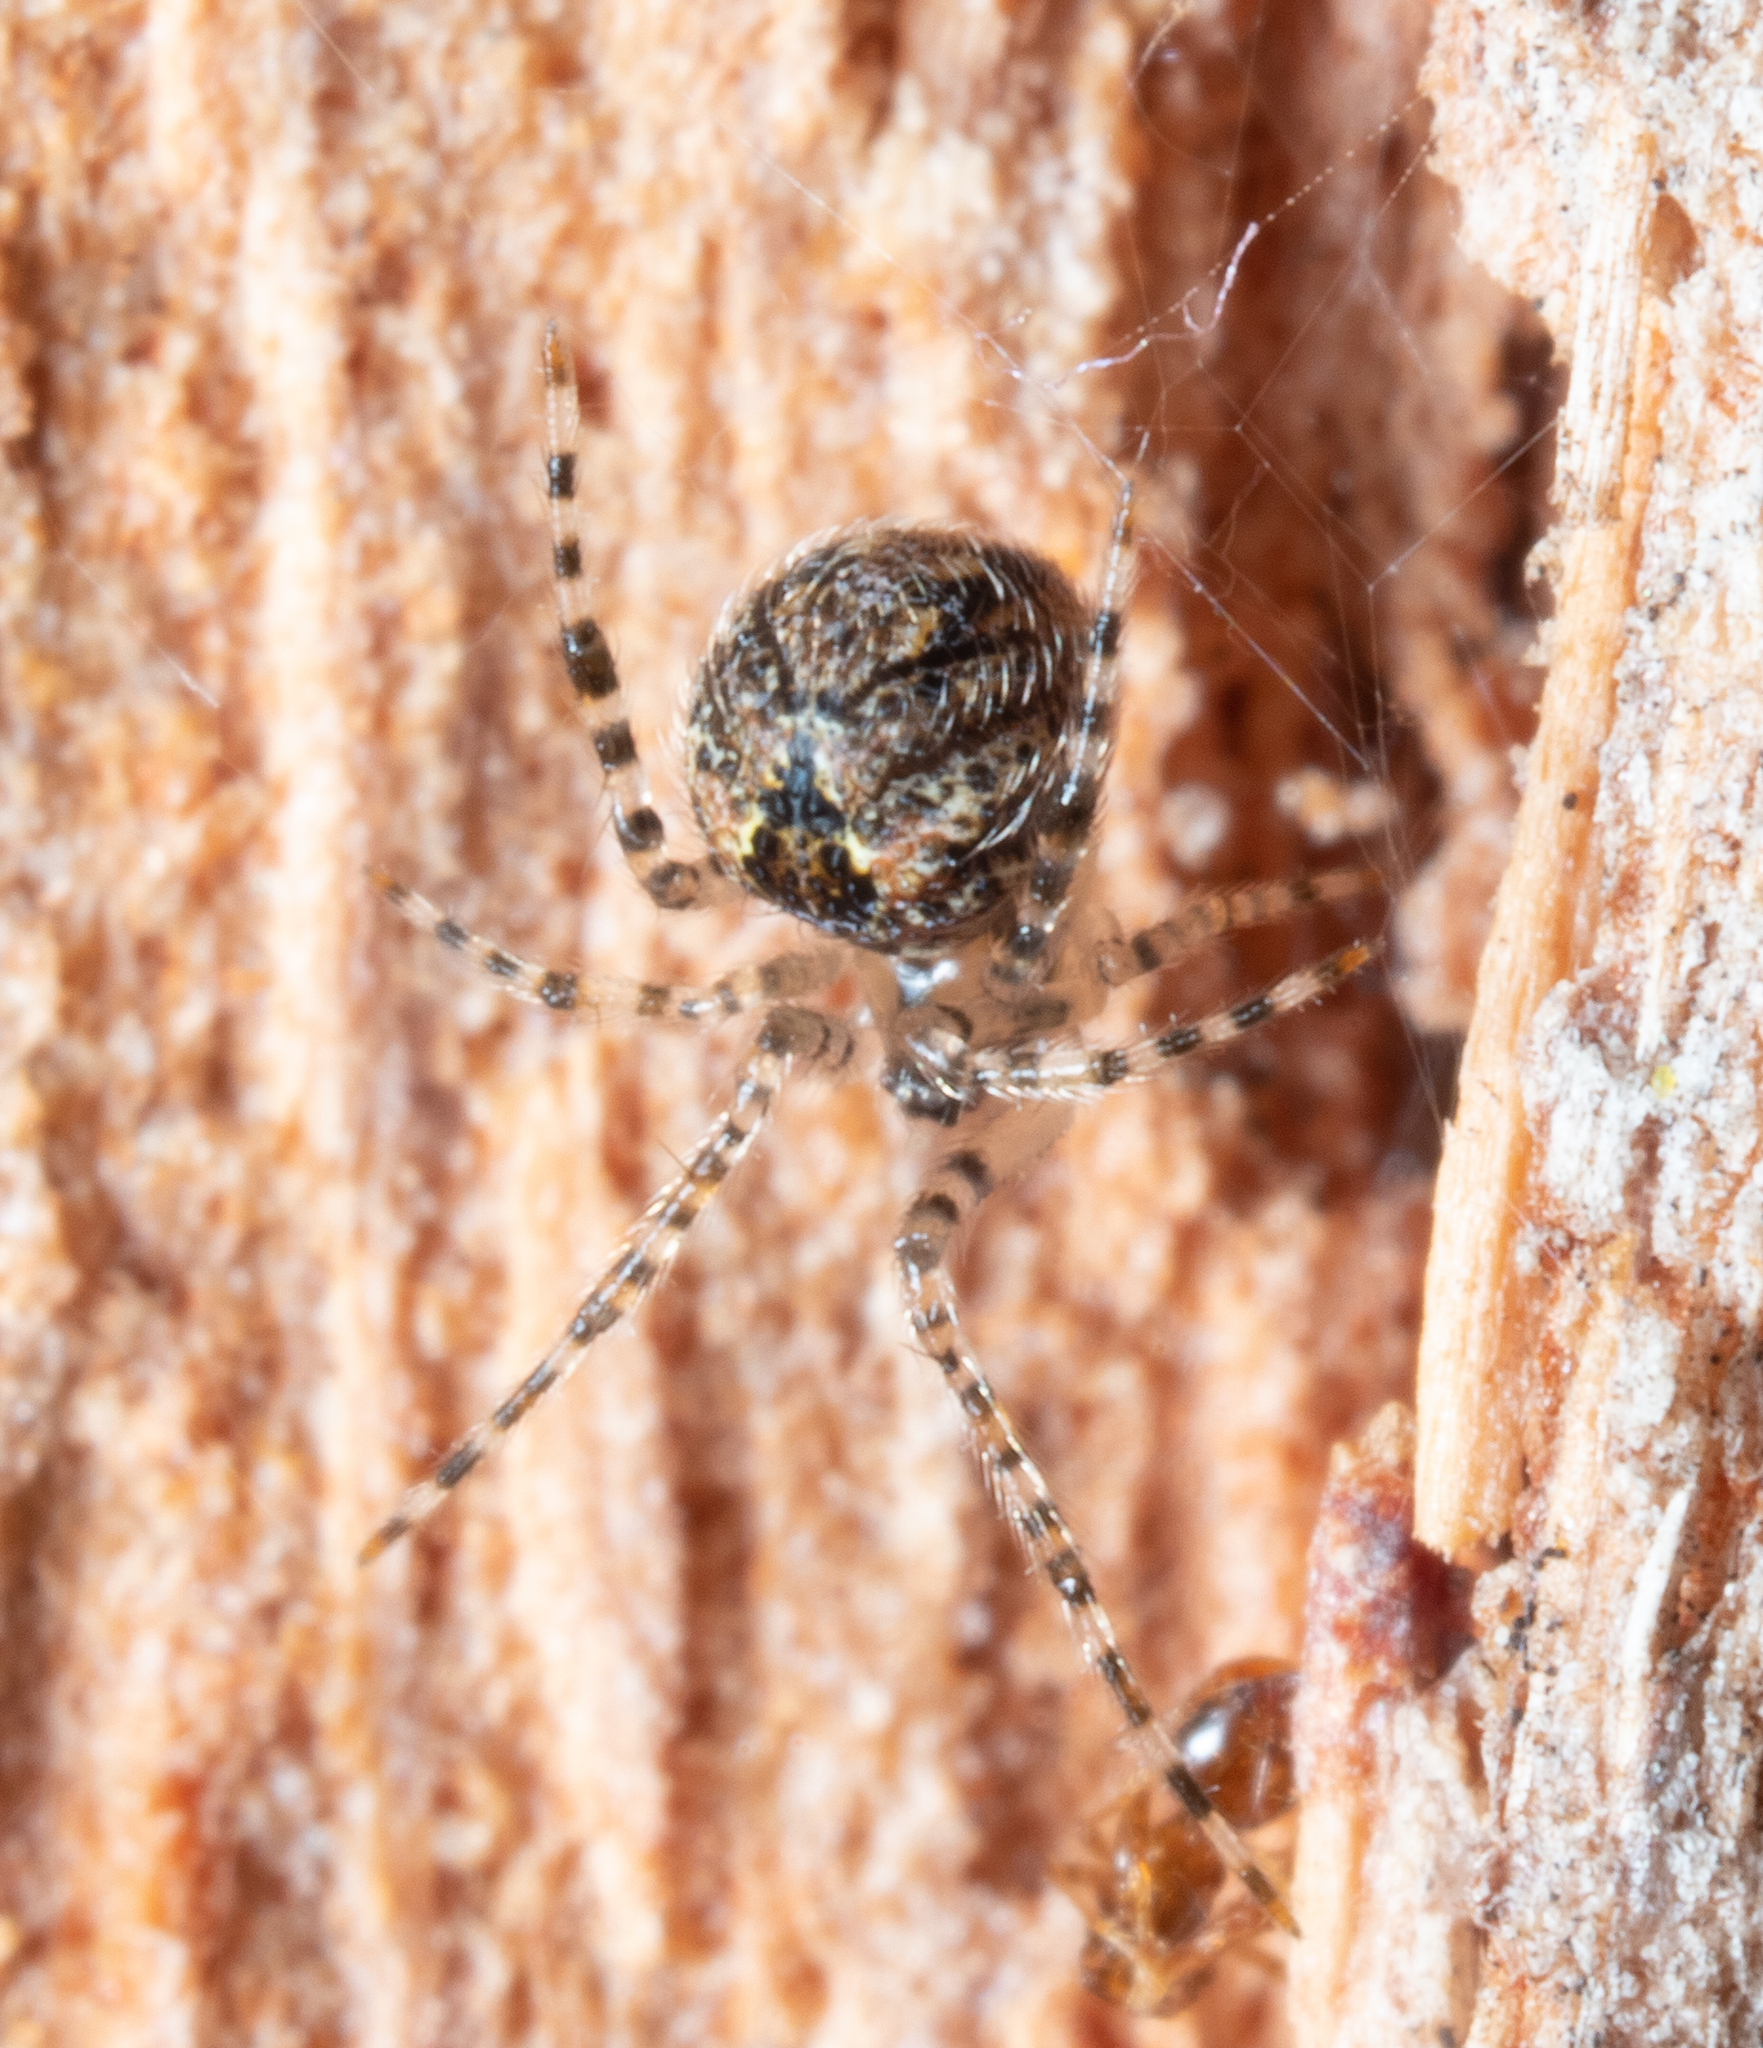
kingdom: Animalia
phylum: Arthropoda
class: Arachnida
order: Araneae
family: Theridiidae
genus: Cryptachaea
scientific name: Cryptachaea veruculata
